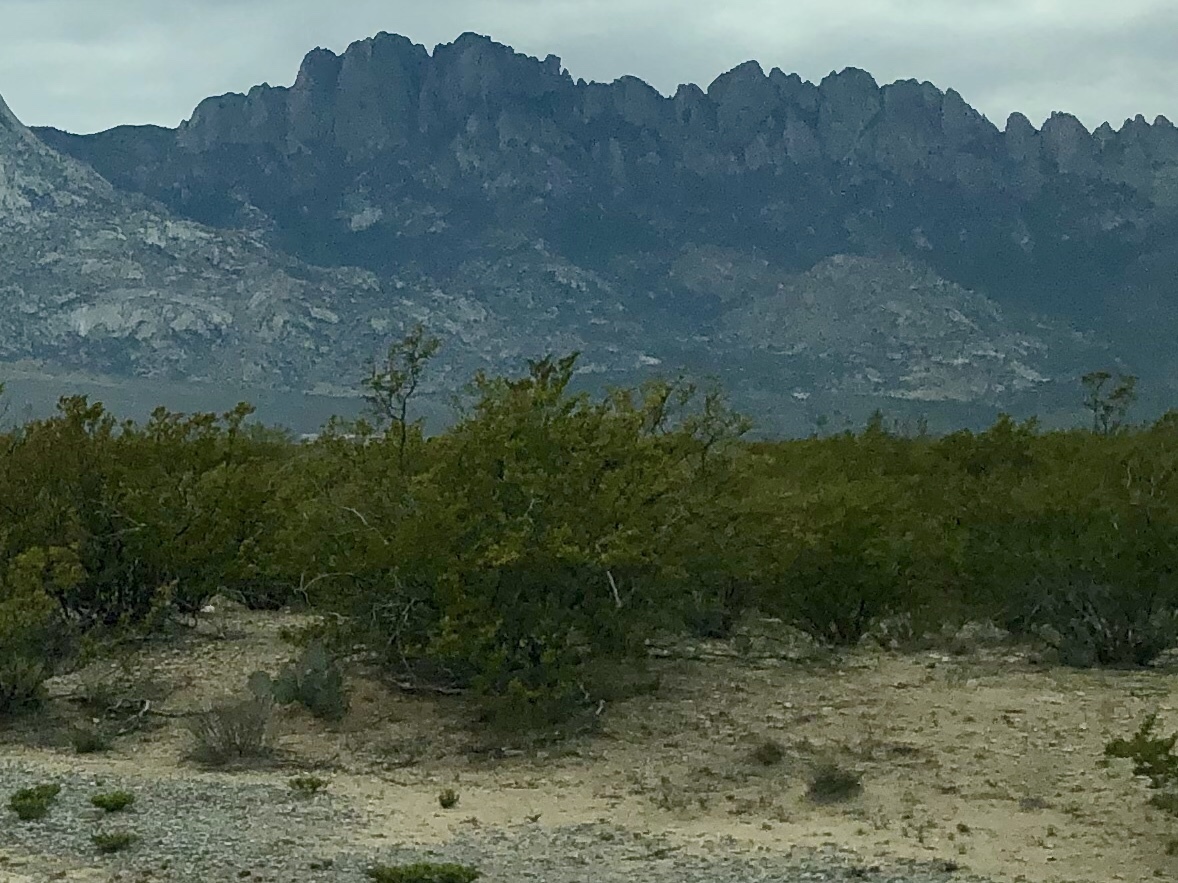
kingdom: Plantae
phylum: Tracheophyta
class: Magnoliopsida
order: Zygophyllales
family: Zygophyllaceae
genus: Larrea
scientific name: Larrea tridentata
